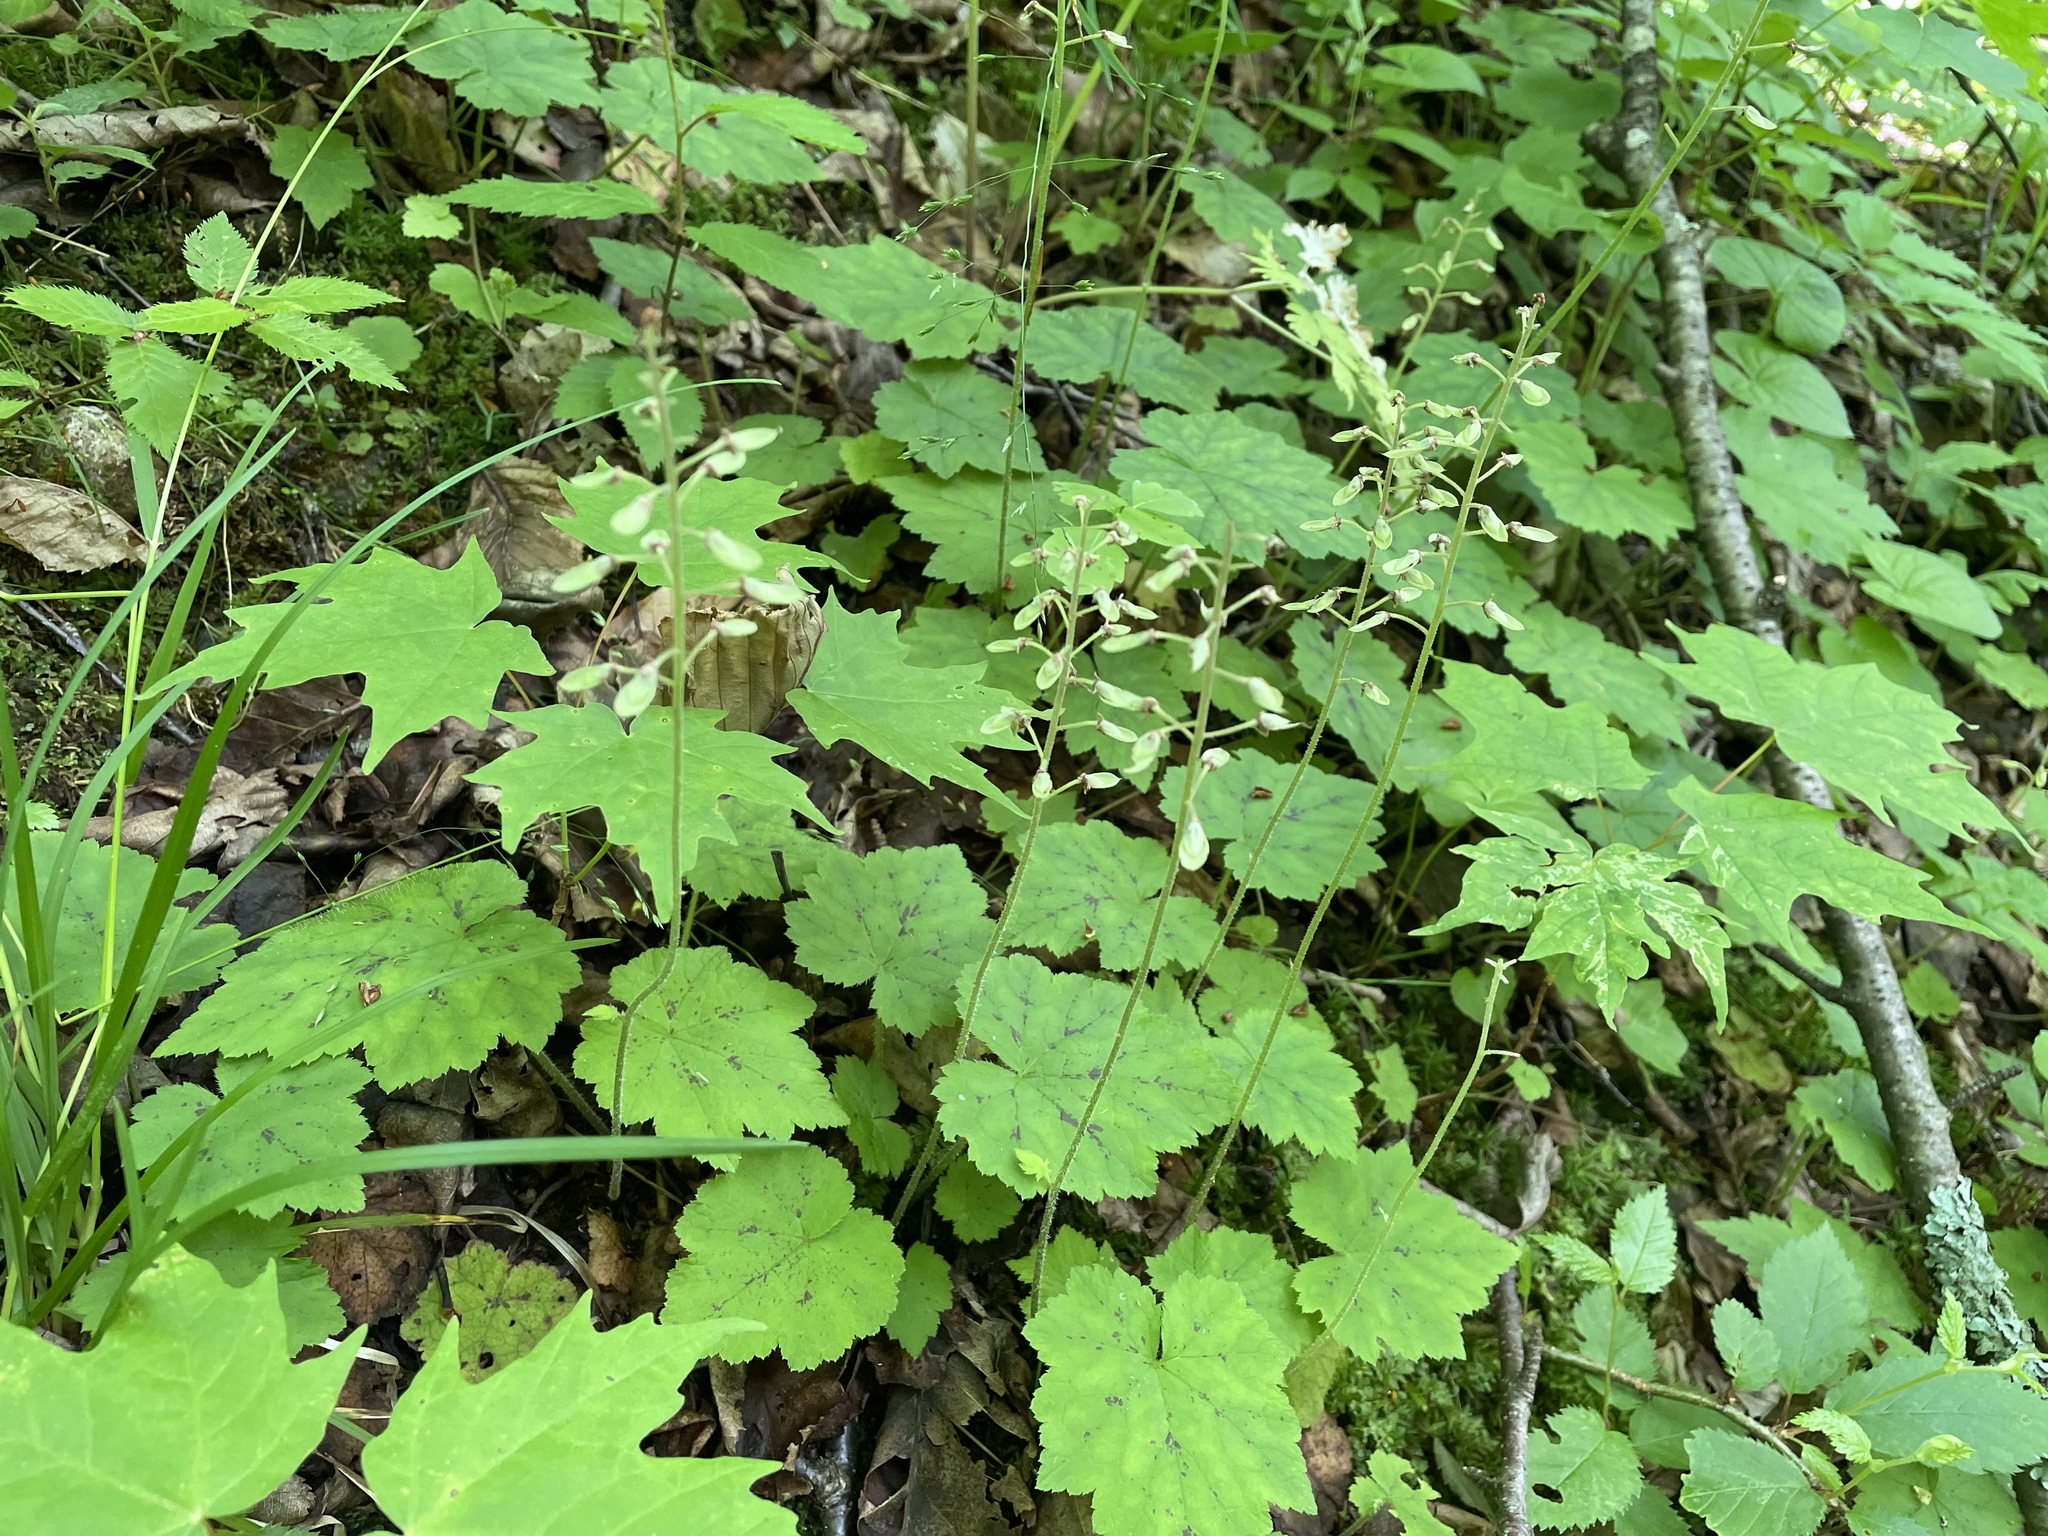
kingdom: Plantae
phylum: Tracheophyta
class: Magnoliopsida
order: Saxifragales
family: Saxifragaceae
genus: Tiarella
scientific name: Tiarella stolonifera
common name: Stoloniferous foamflower
